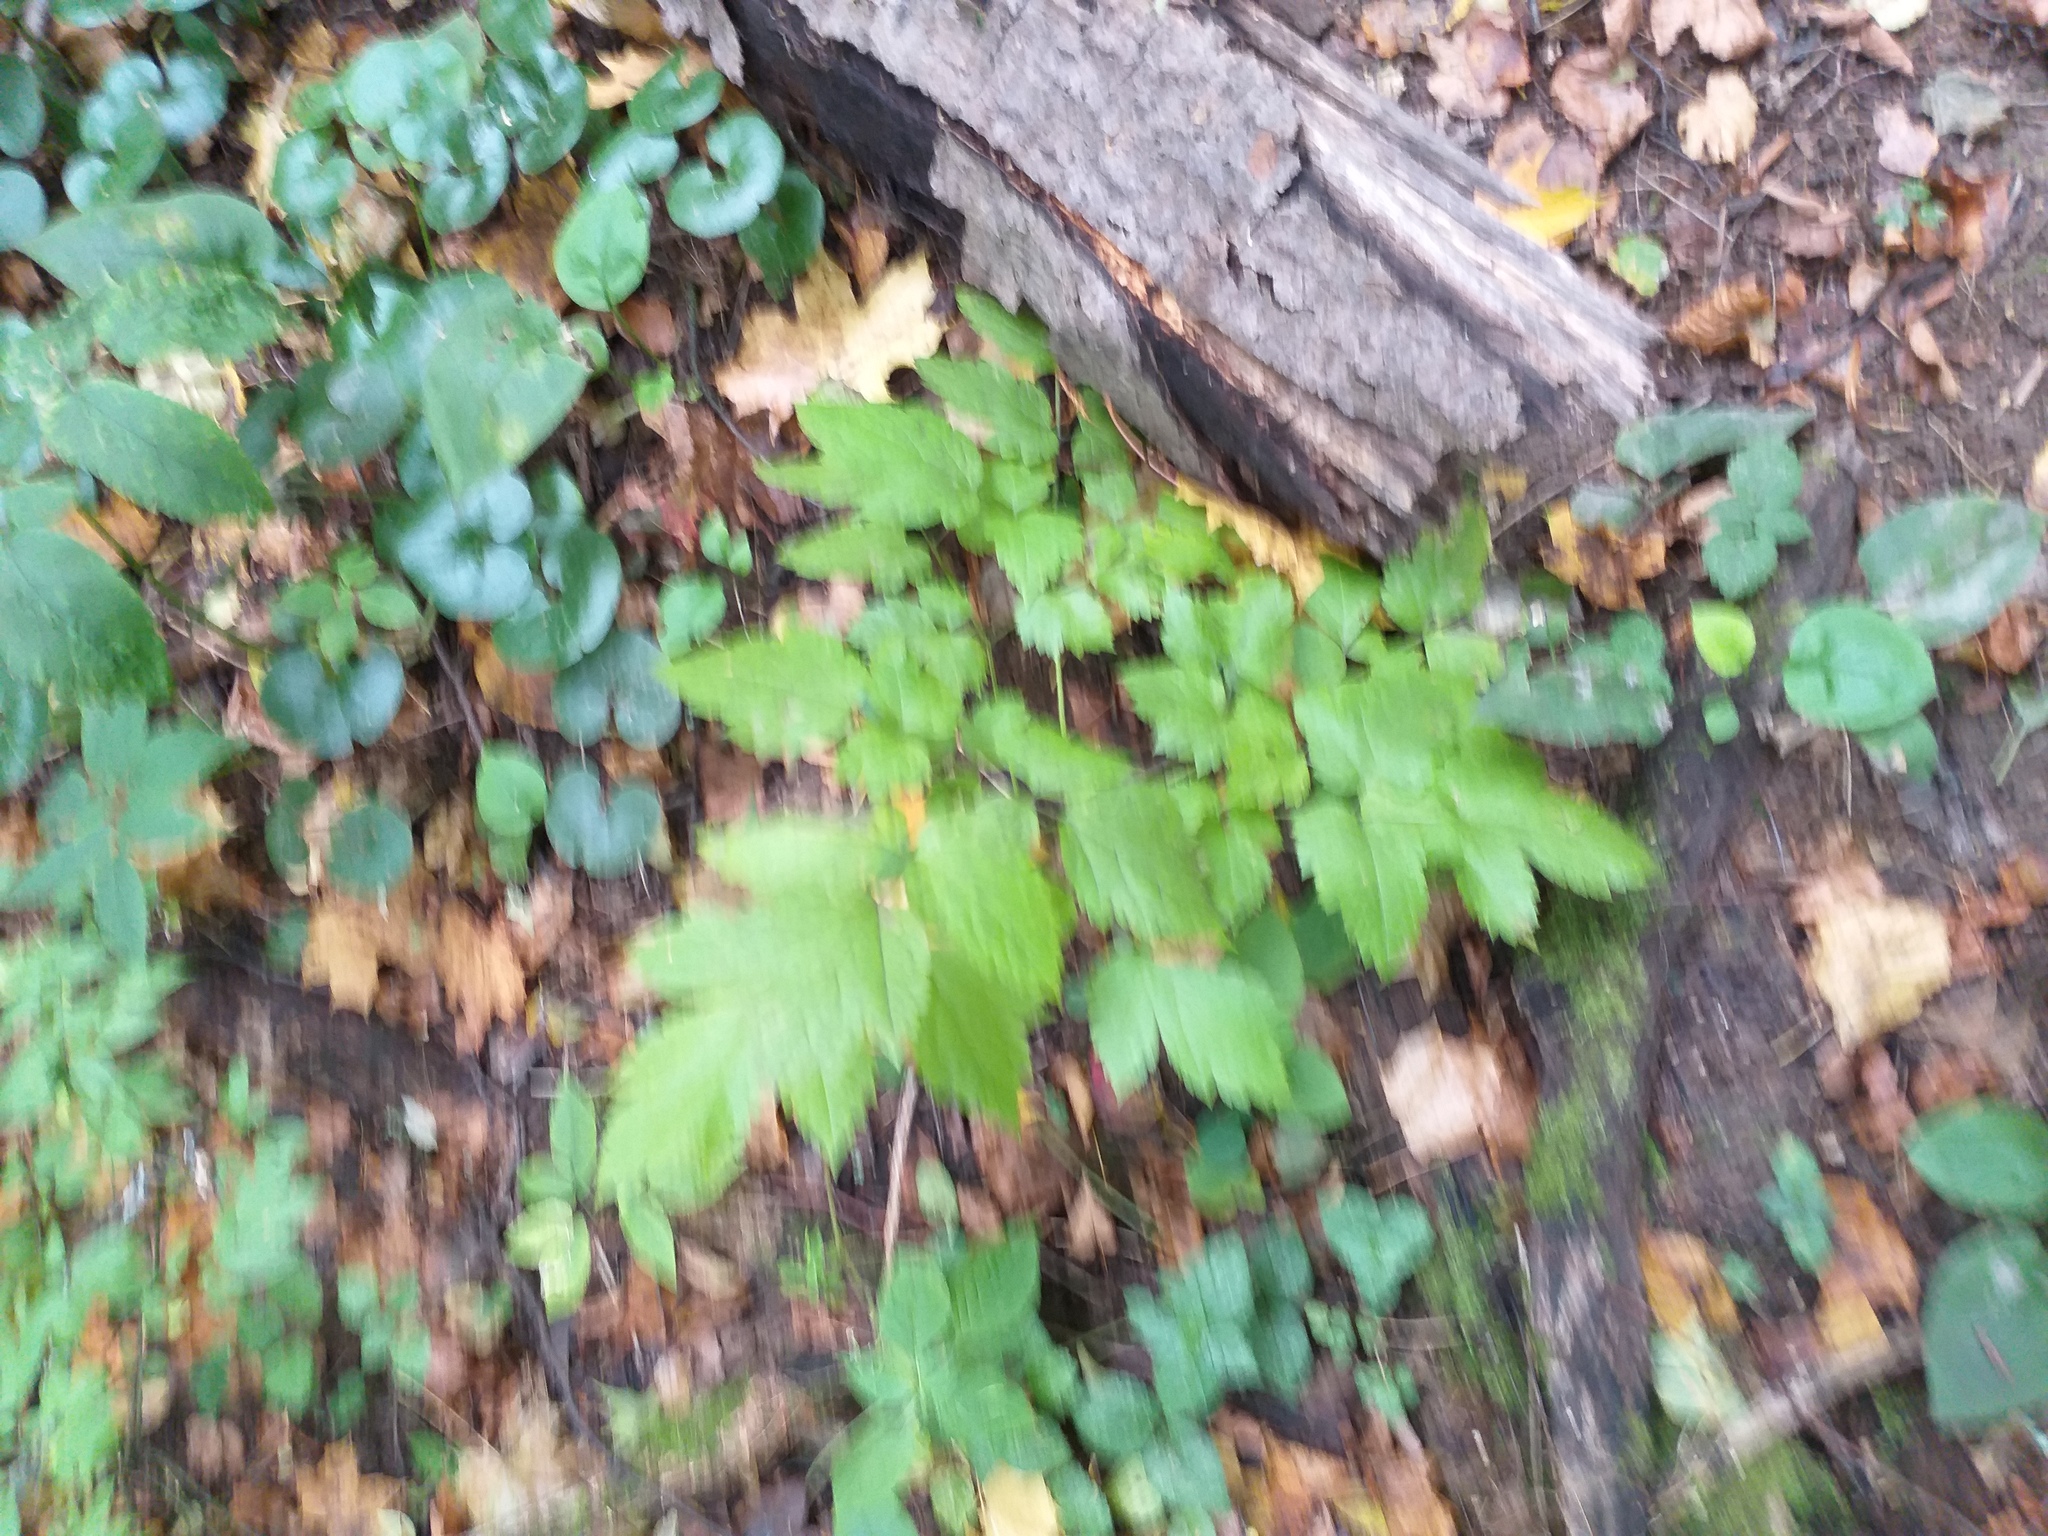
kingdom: Plantae
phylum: Tracheophyta
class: Magnoliopsida
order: Ranunculales
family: Ranunculaceae
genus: Actaea
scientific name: Actaea spicata
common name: Baneberry
